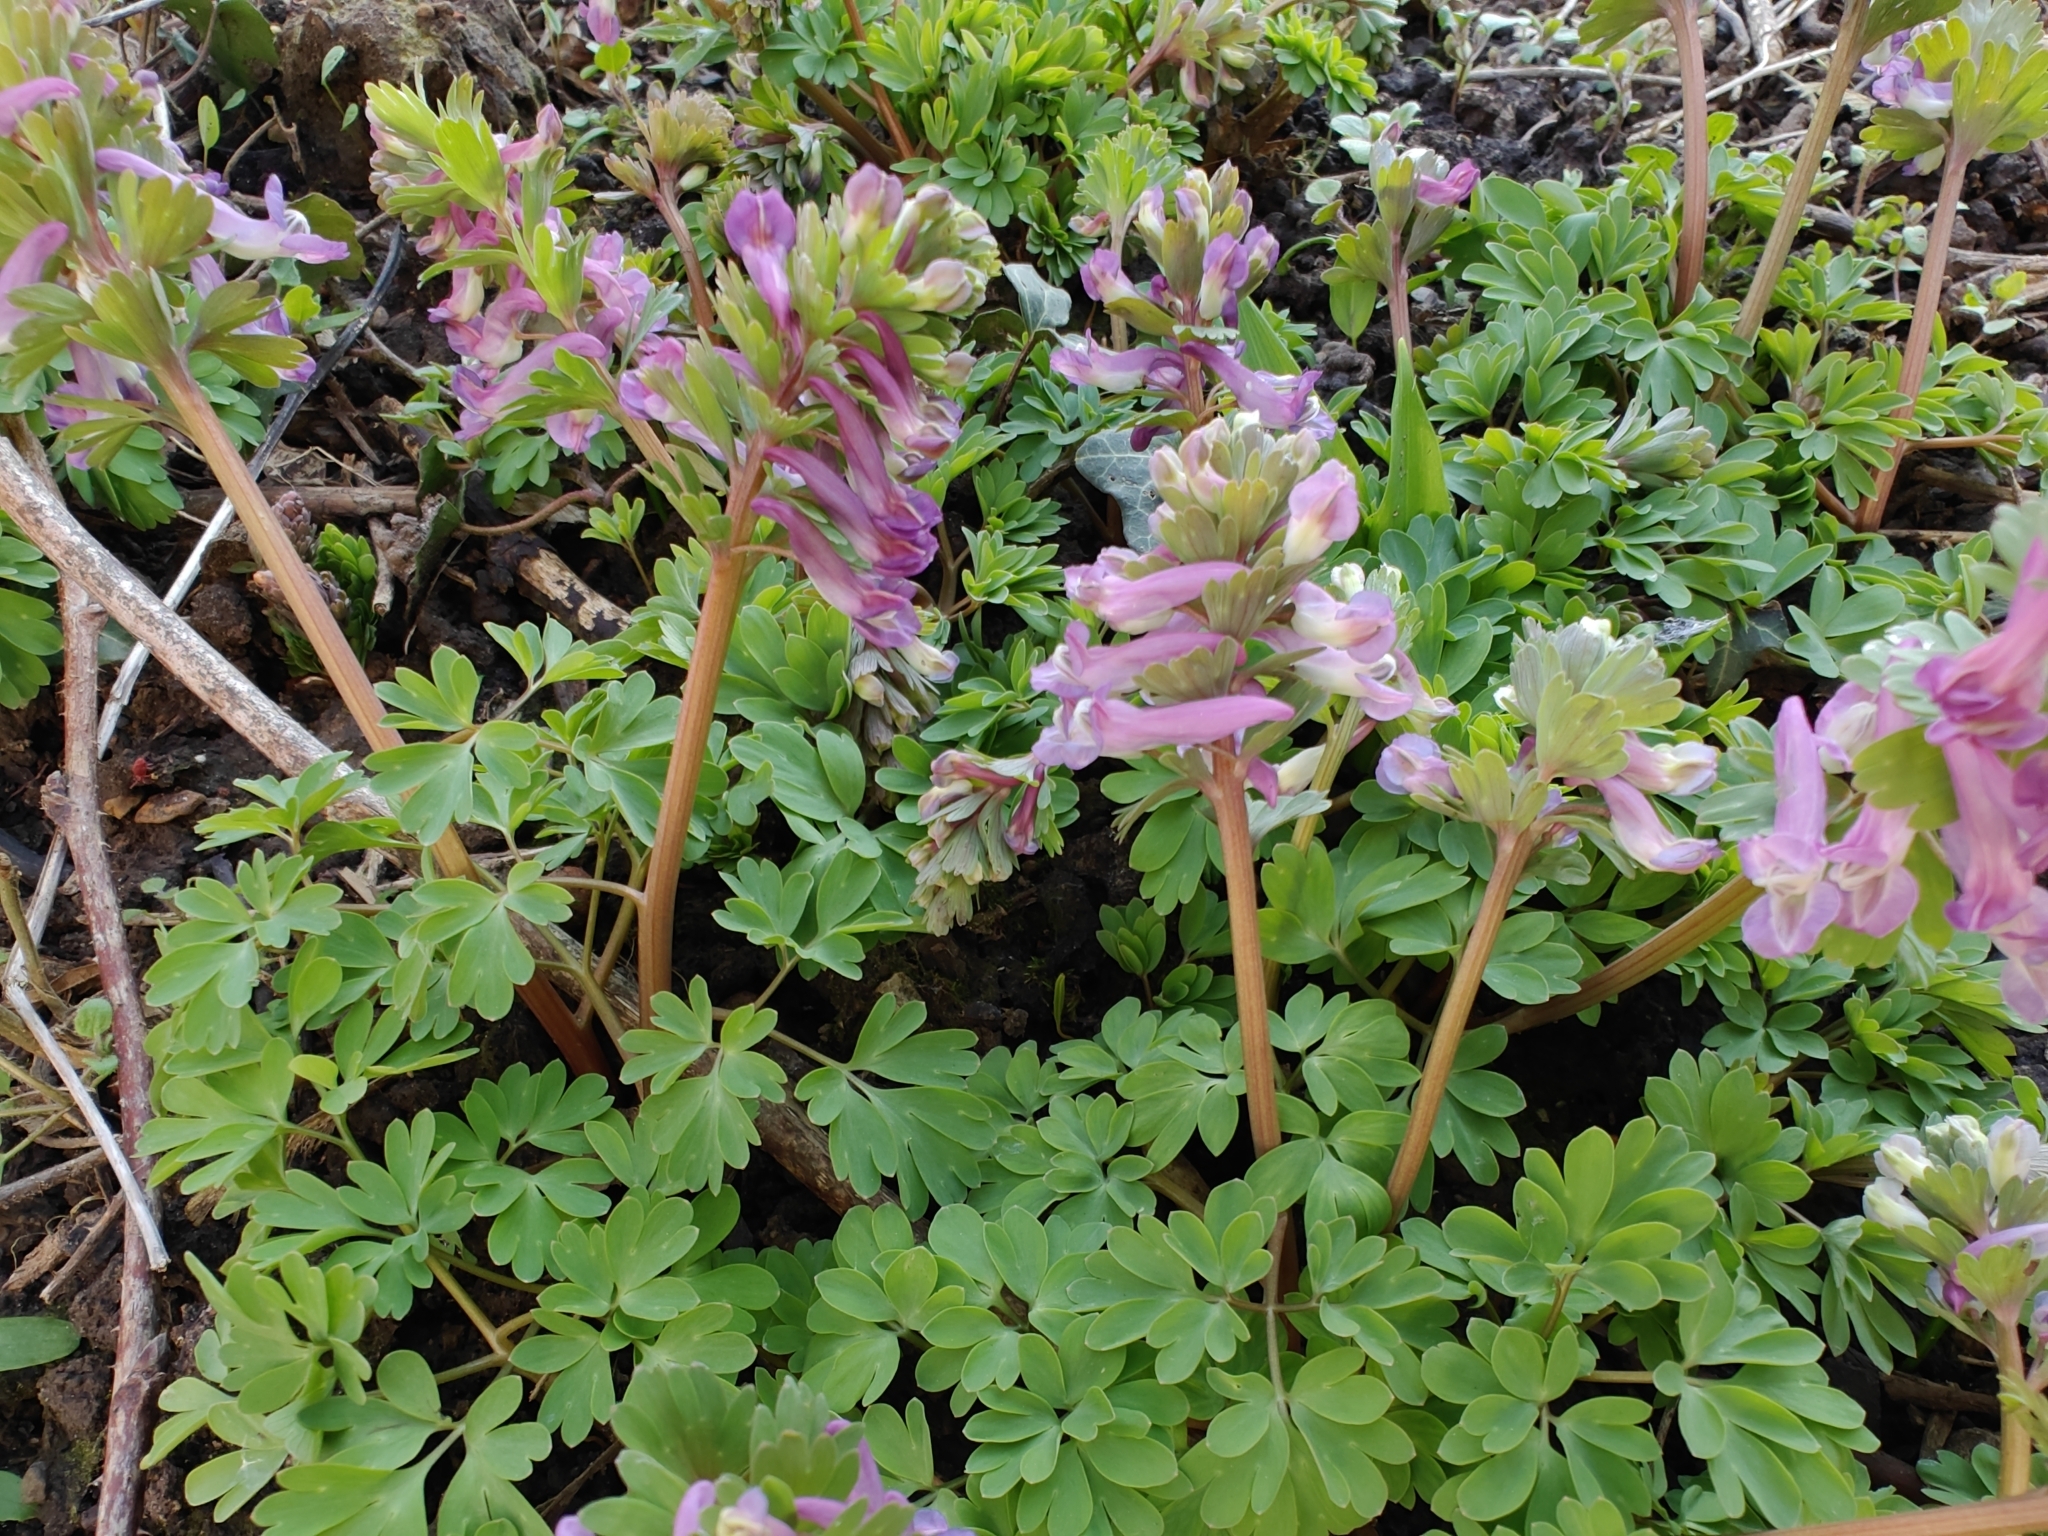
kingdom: Plantae
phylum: Tracheophyta
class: Magnoliopsida
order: Ranunculales
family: Papaveraceae
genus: Corydalis
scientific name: Corydalis solida
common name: Bird-in-a-bush
